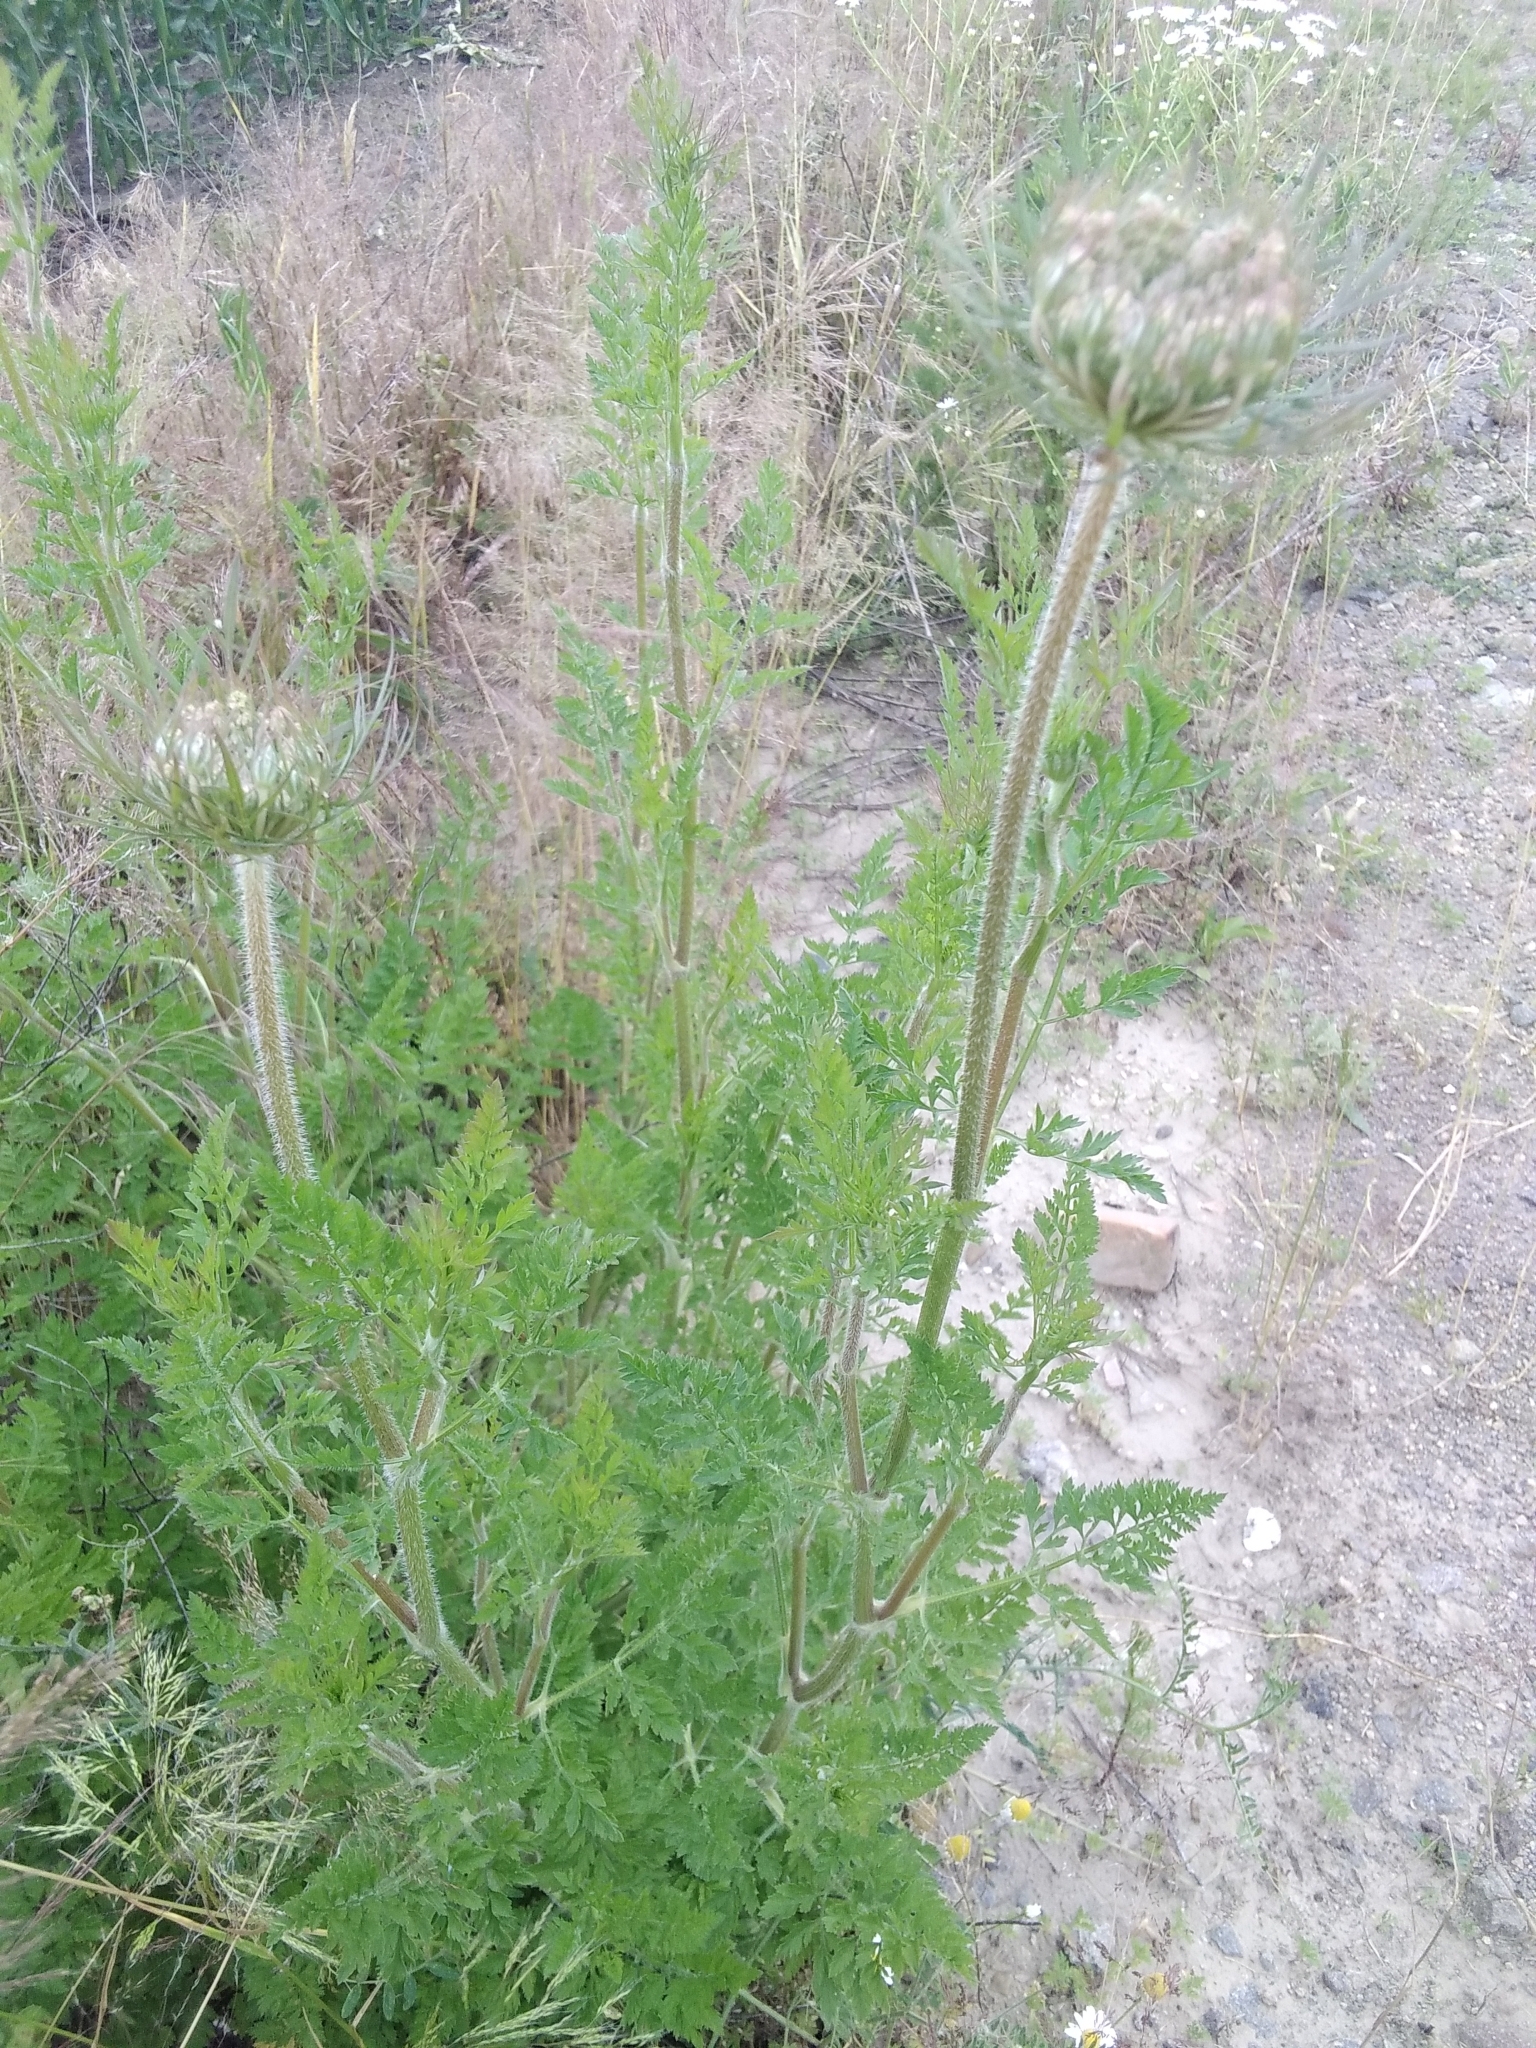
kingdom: Plantae
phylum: Tracheophyta
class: Magnoliopsida
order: Apiales
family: Apiaceae
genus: Daucus
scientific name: Daucus carota
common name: Wild carrot
